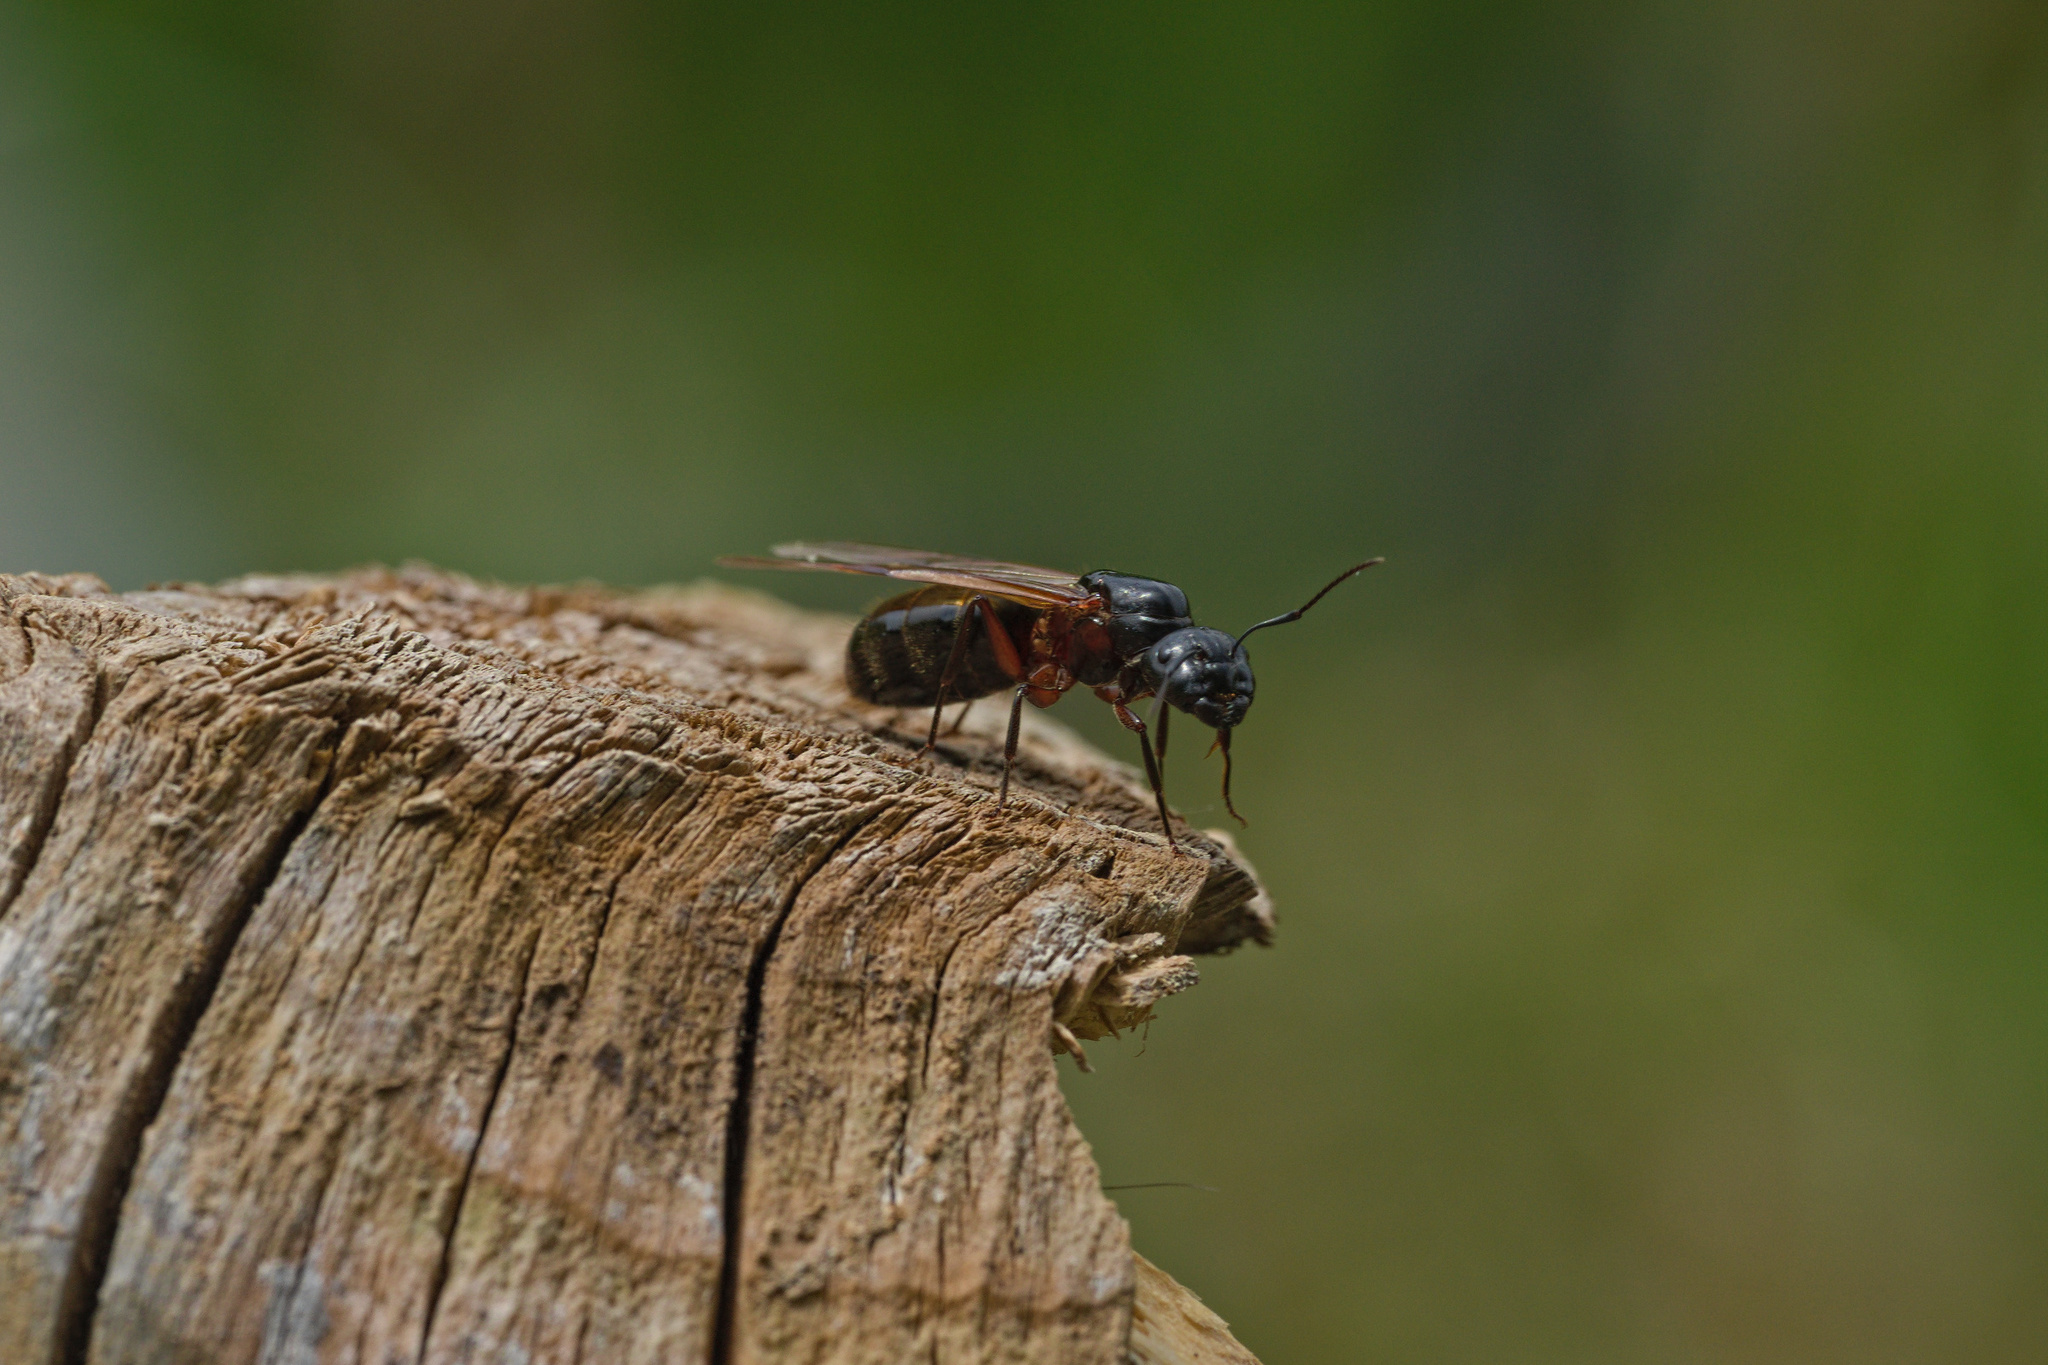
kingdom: Animalia
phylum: Arthropoda
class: Insecta
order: Hymenoptera
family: Formicidae
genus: Camponotus
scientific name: Camponotus herculeanus
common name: Hercules ant
